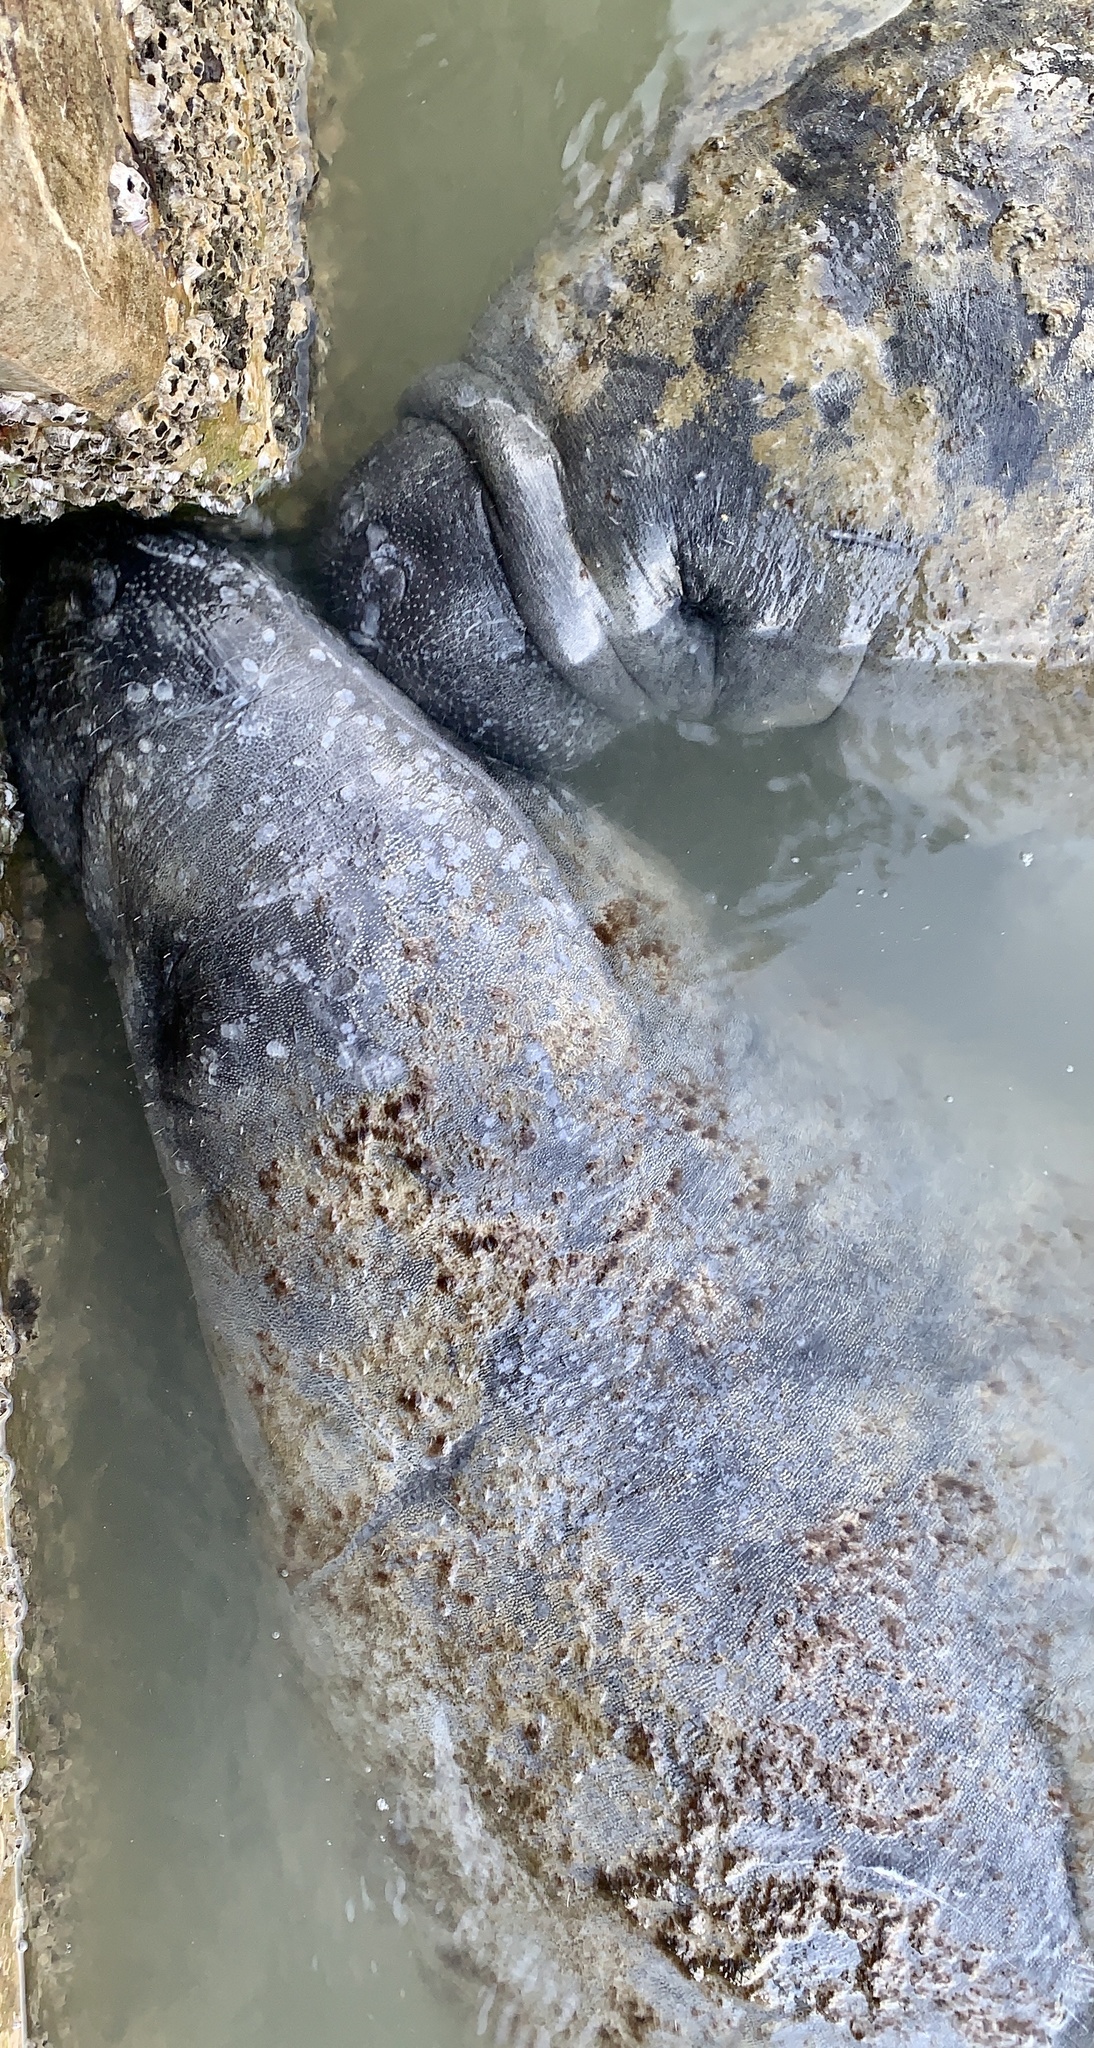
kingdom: Animalia
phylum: Chordata
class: Mammalia
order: Sirenia
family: Trichechidae
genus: Trichechus
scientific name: Trichechus manatus
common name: West indian manatee
